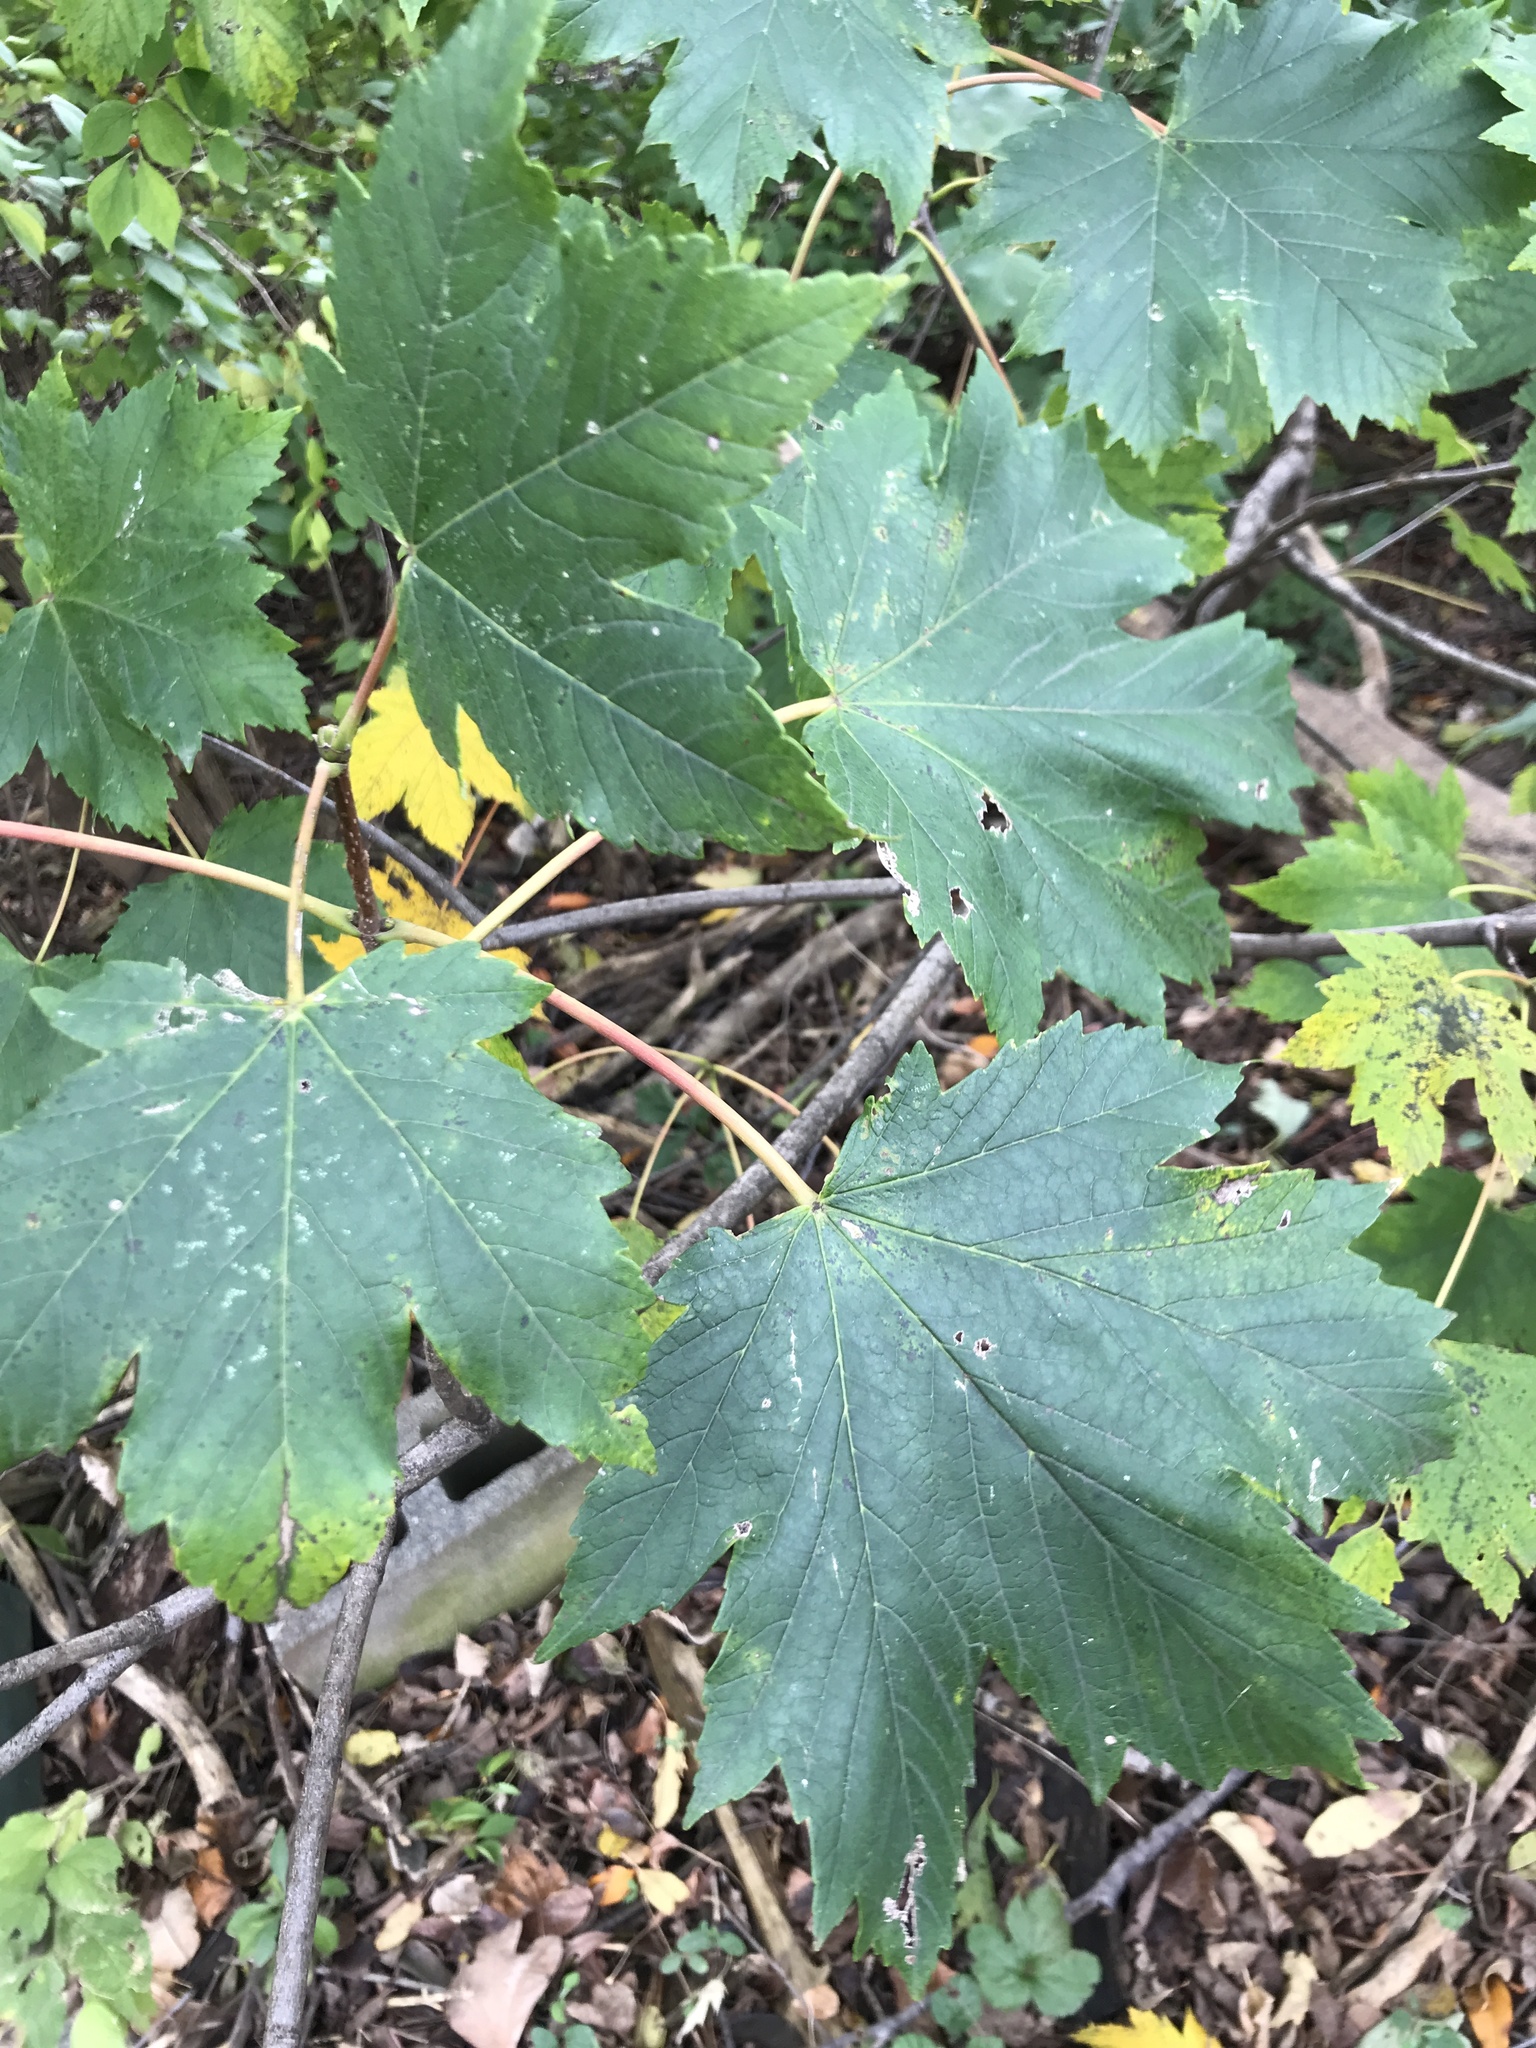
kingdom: Plantae
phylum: Tracheophyta
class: Magnoliopsida
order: Sapindales
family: Sapindaceae
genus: Acer
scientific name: Acer pseudoplatanus
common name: Sycamore
